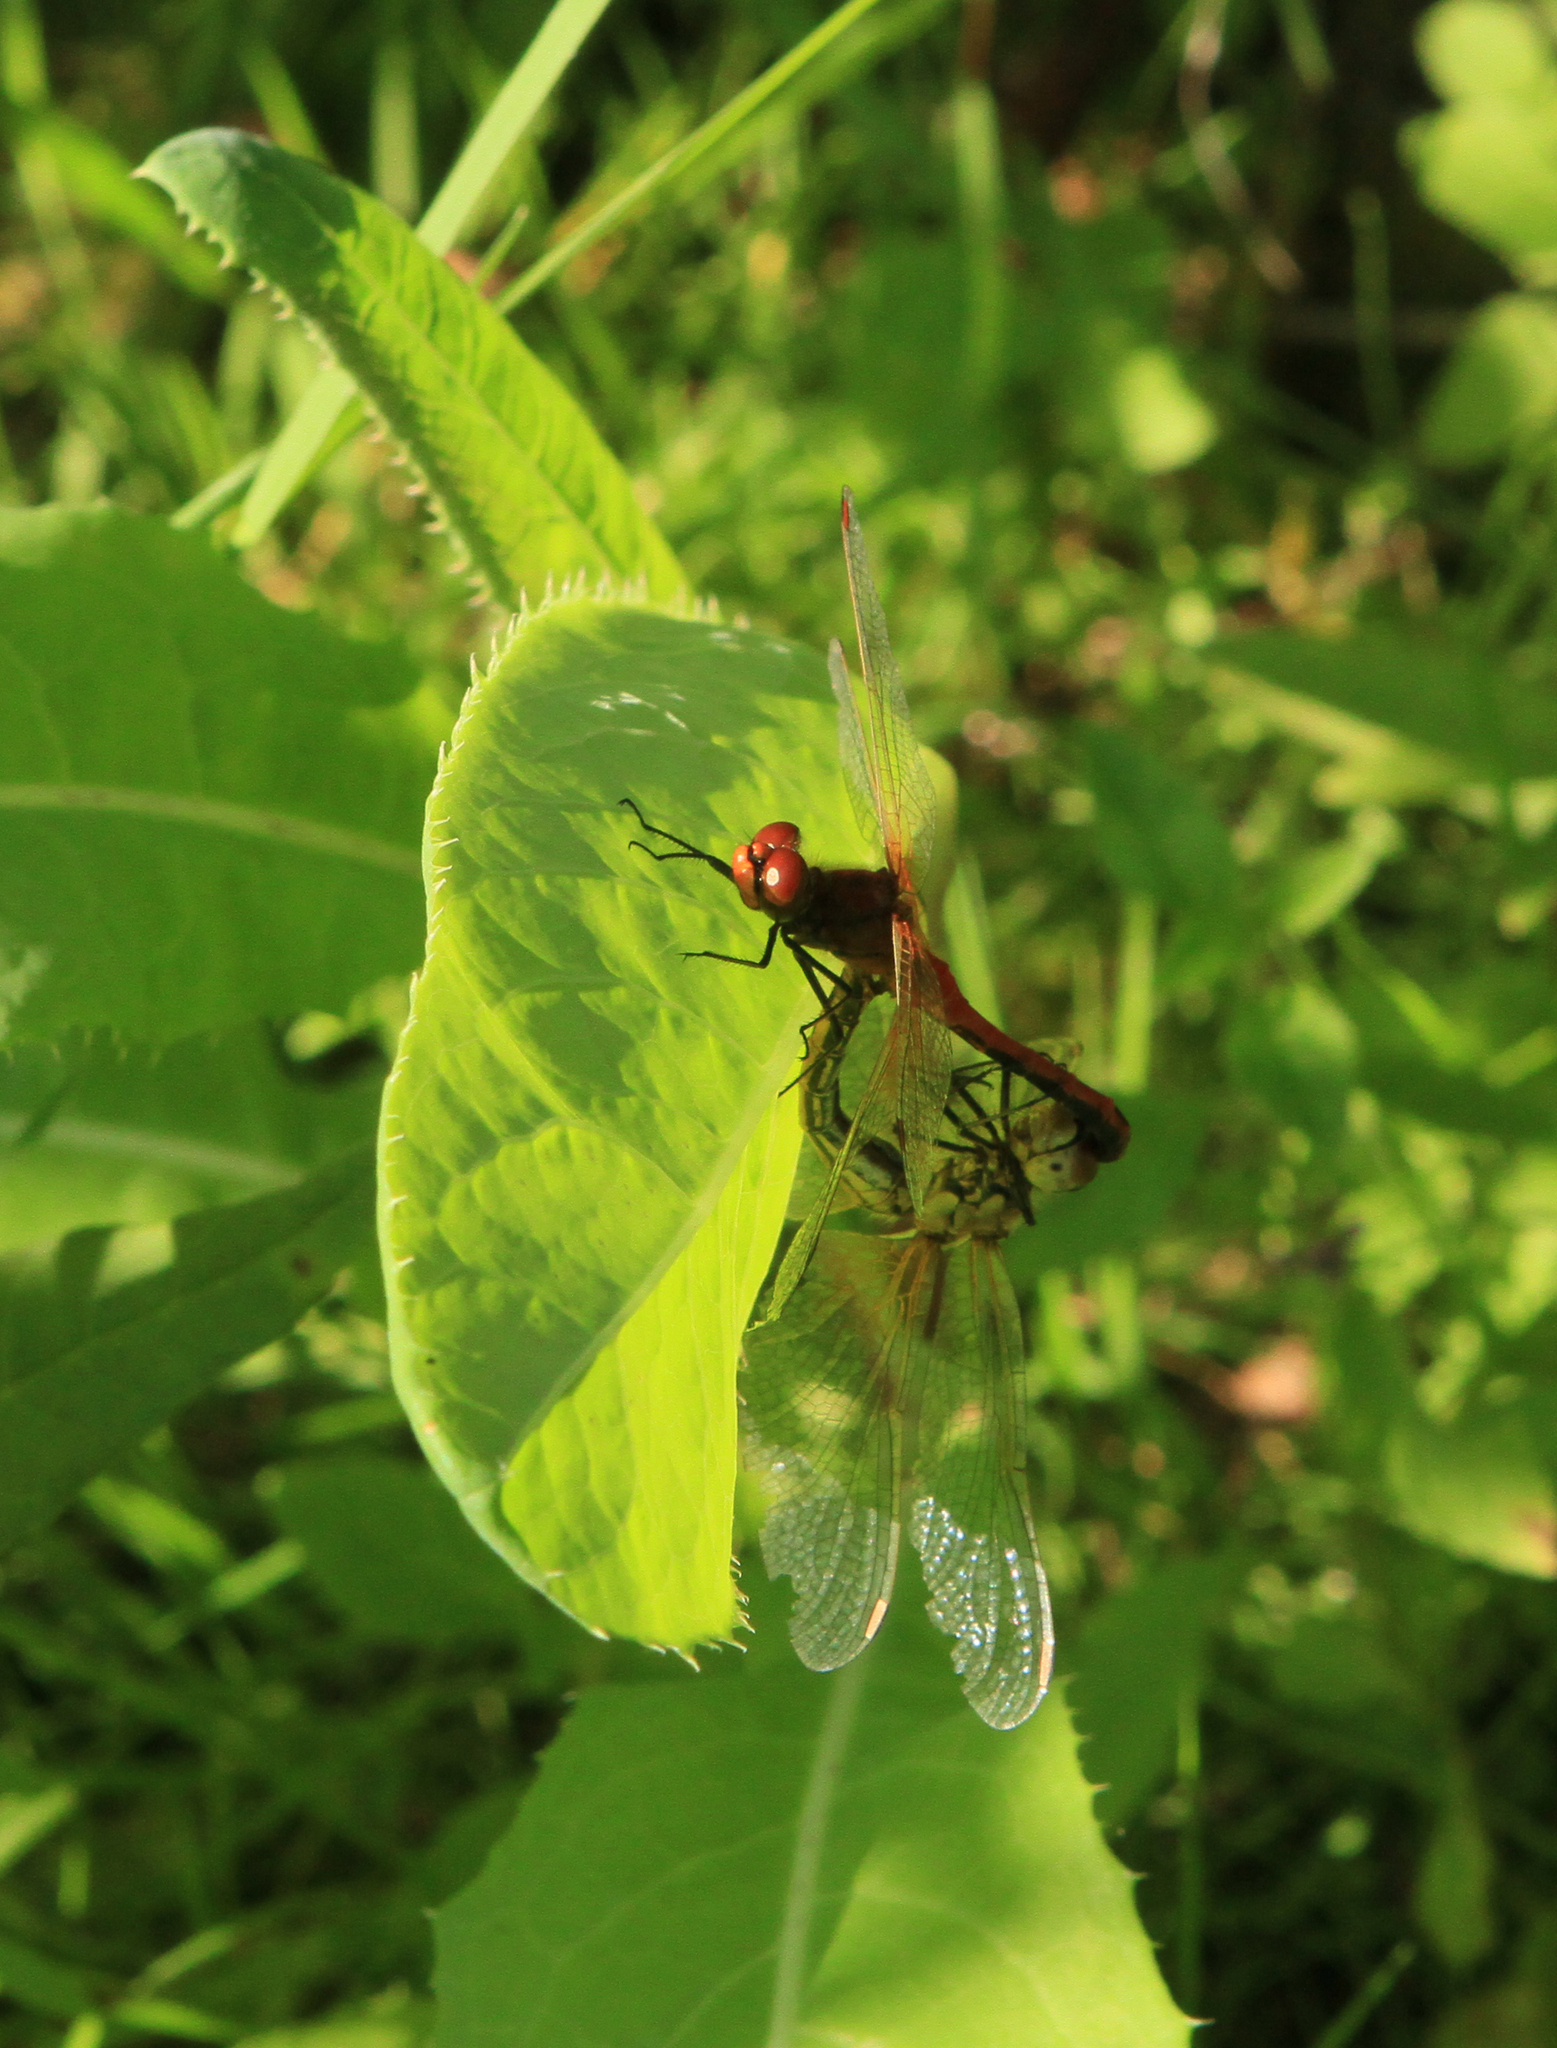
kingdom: Animalia
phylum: Arthropoda
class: Insecta
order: Odonata
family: Libellulidae
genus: Sympetrum
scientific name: Sympetrum flaveolum
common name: Yellow-winged darter
